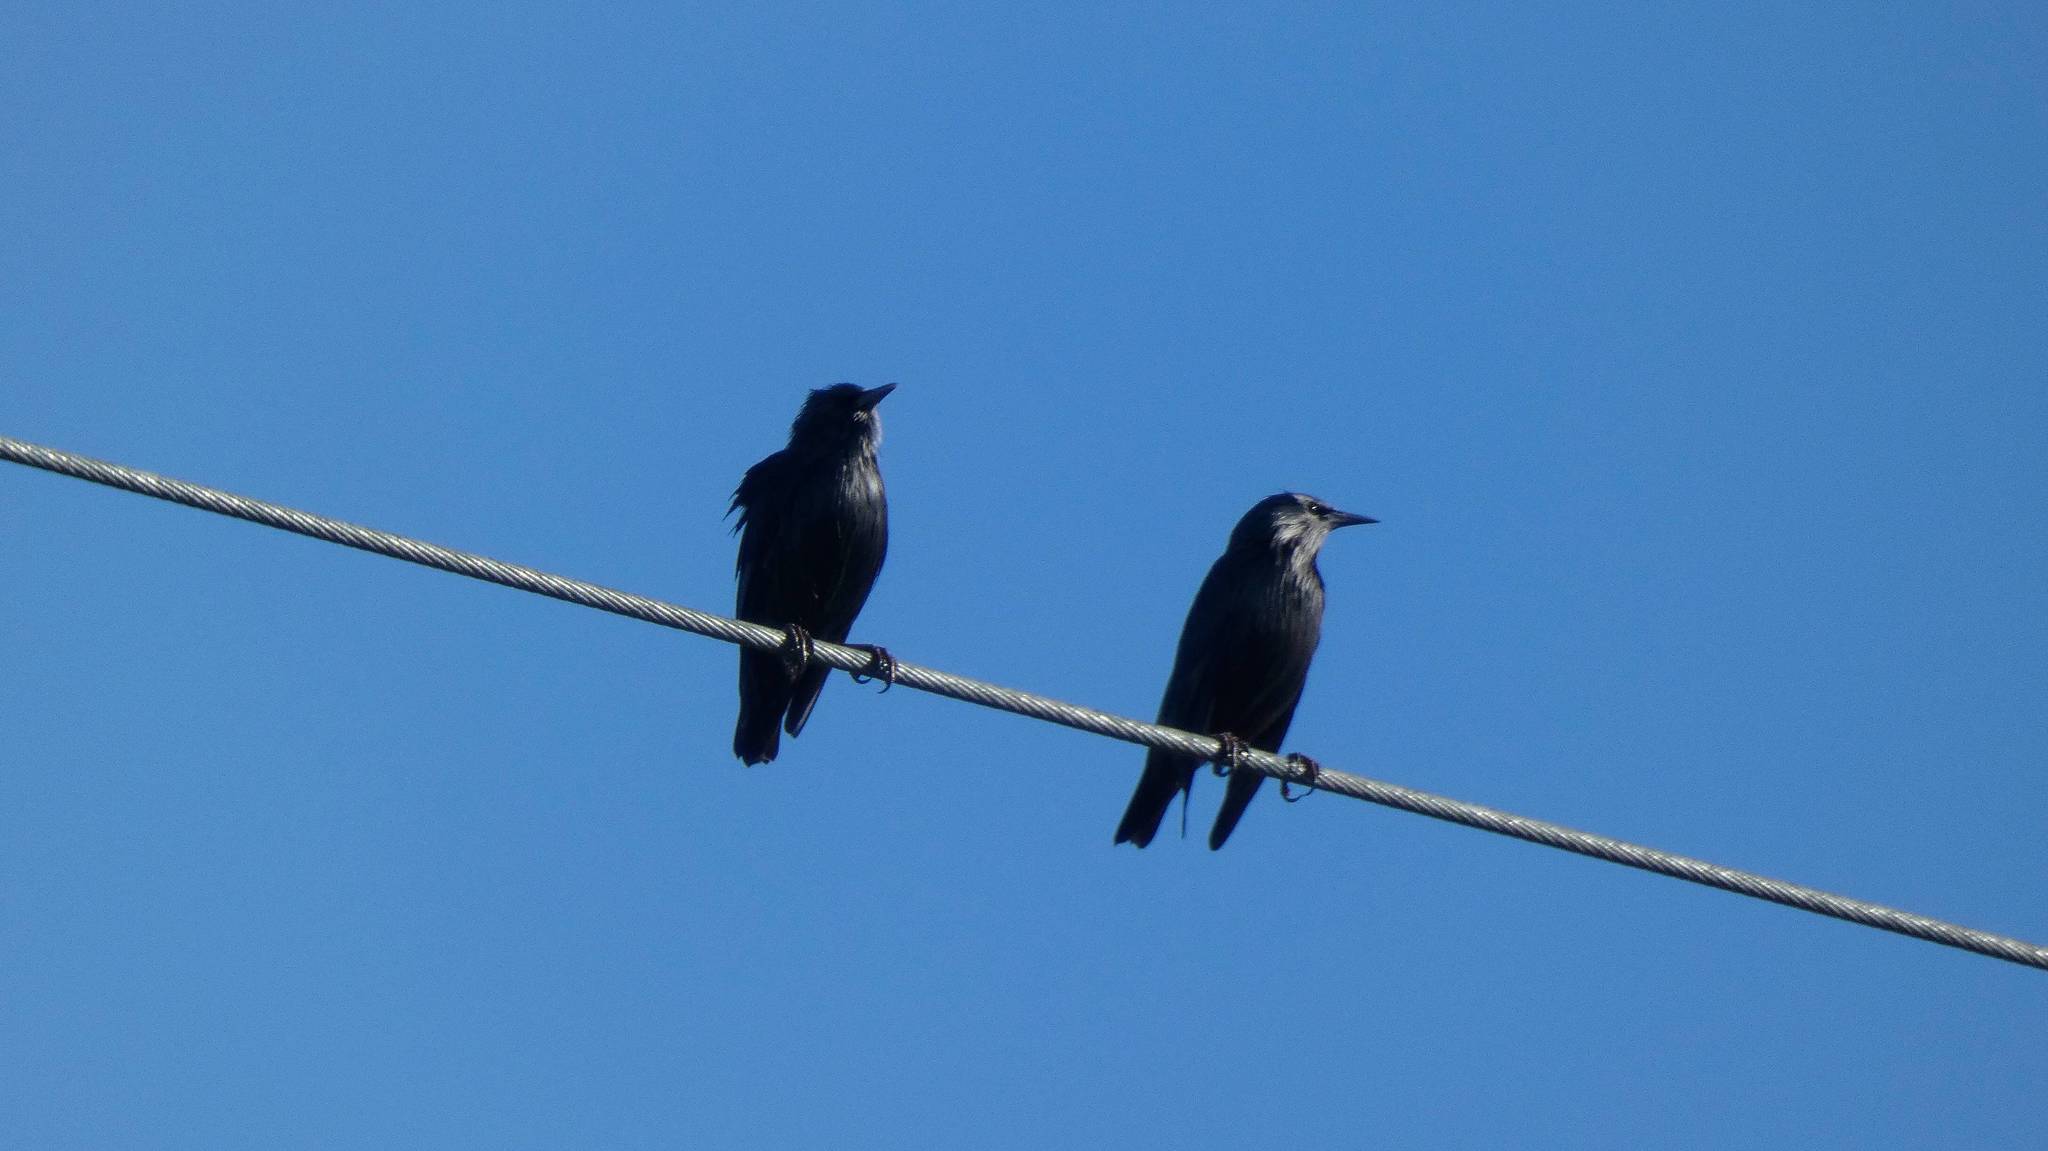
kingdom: Animalia
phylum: Chordata
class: Aves
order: Passeriformes
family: Sturnidae
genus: Sturnus
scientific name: Sturnus unicolor
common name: Spotless starling
